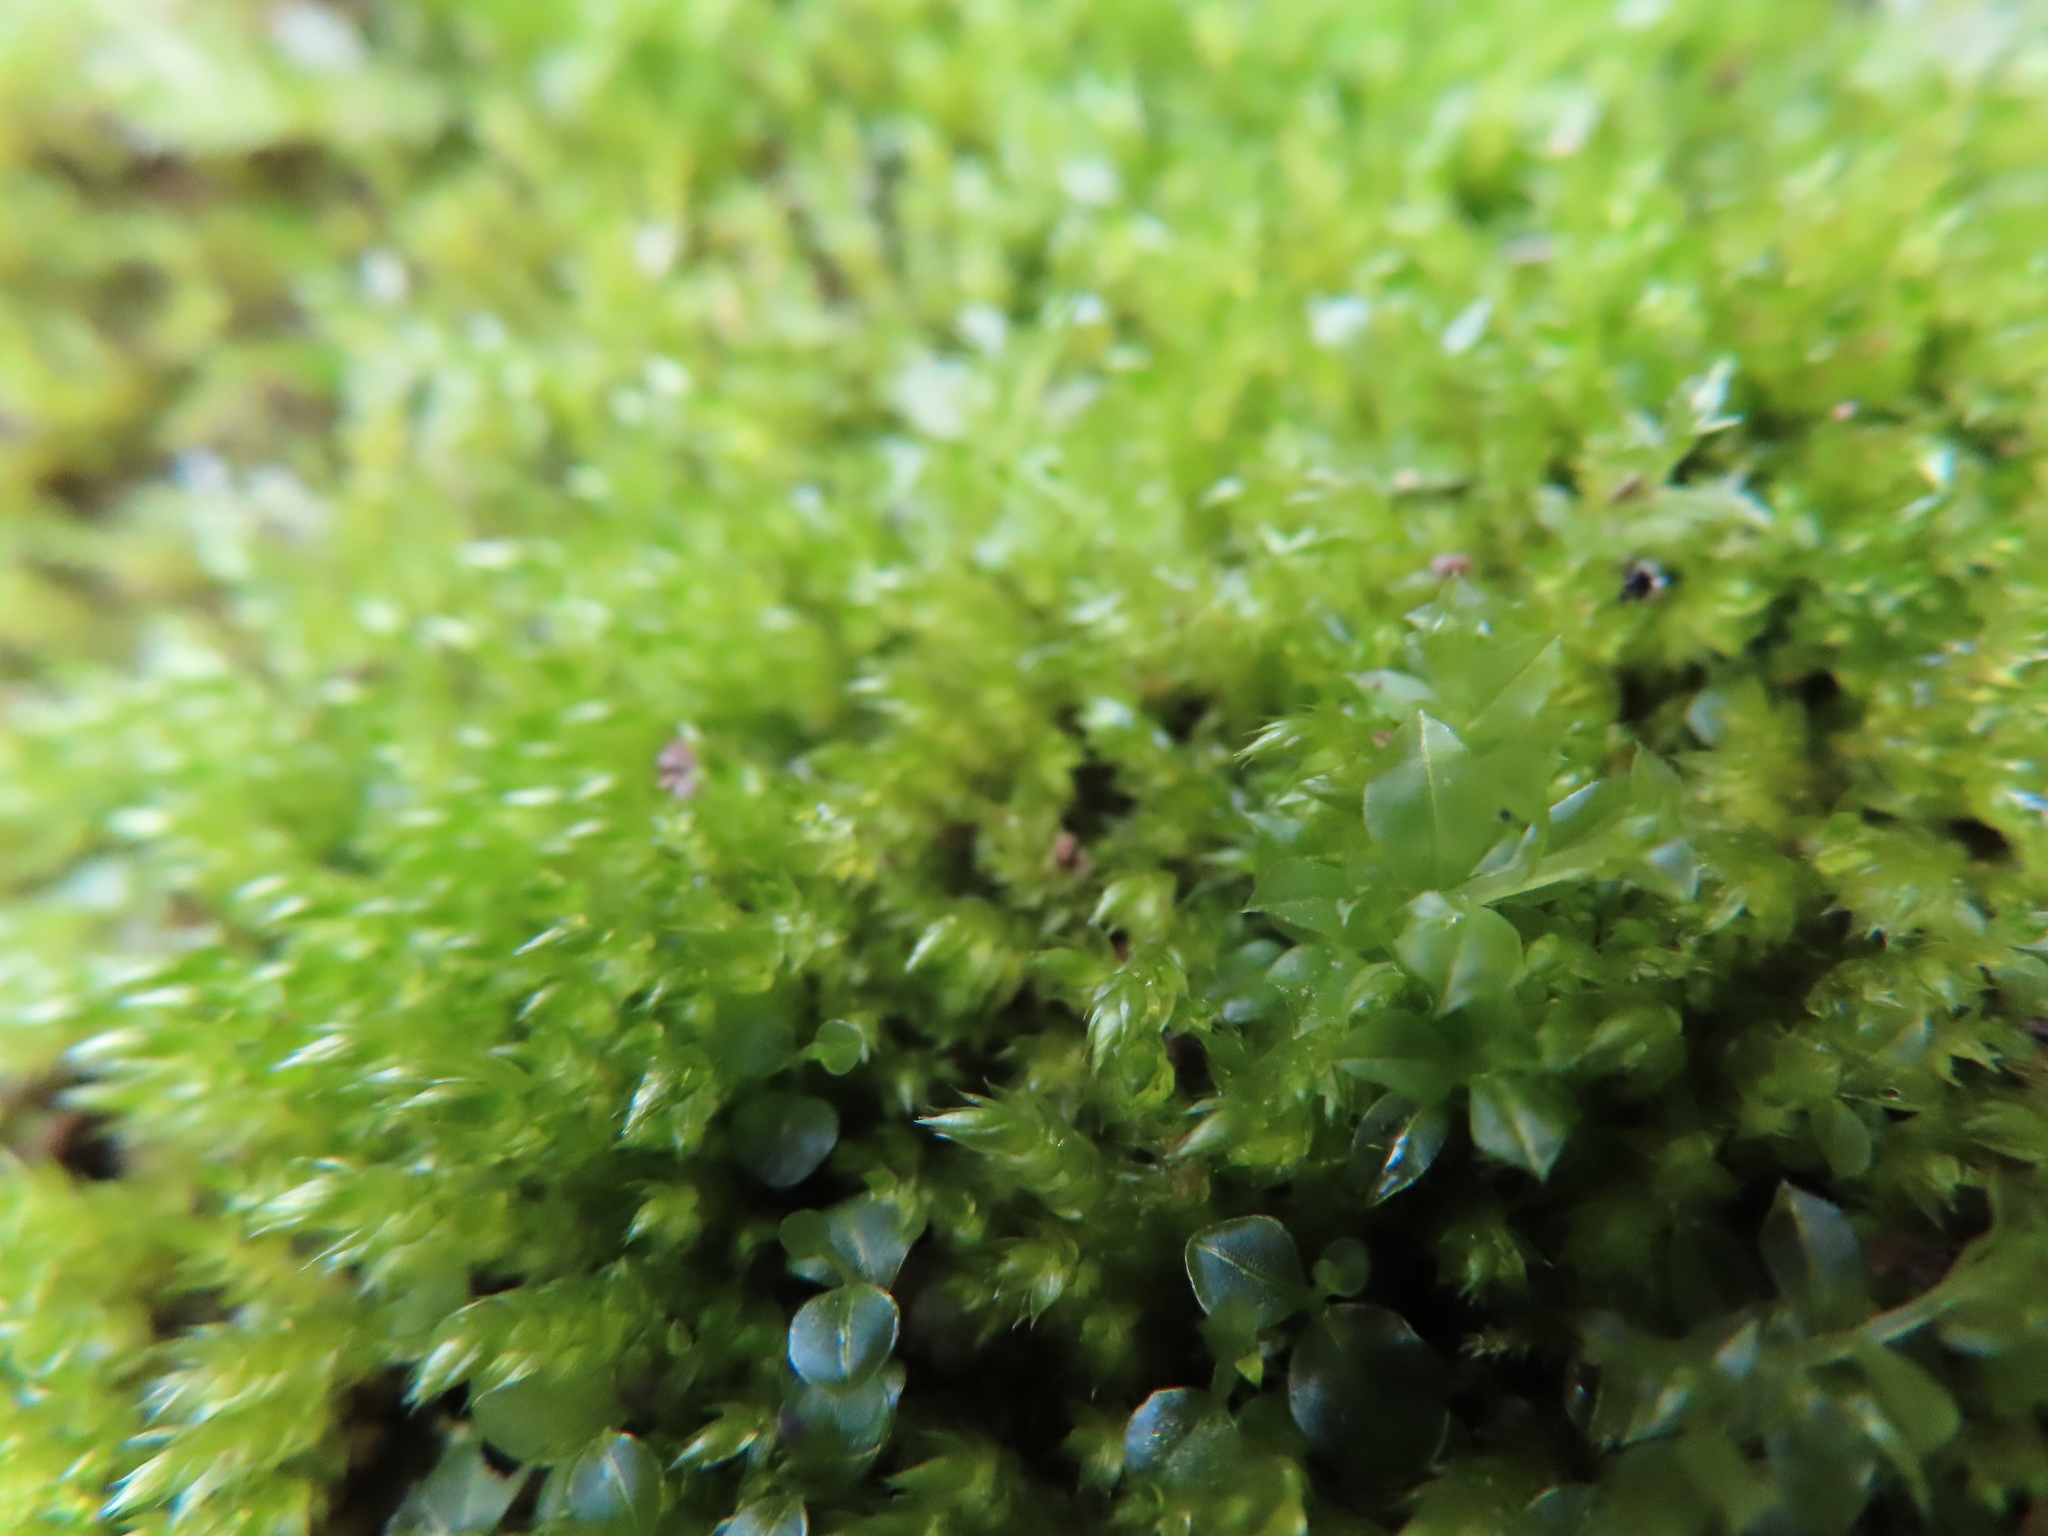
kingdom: Plantae
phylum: Bryophyta
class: Bryopsida
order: Bryales
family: Mniaceae
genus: Plagiomnium
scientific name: Plagiomnium cuspidatum
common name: Woodsy leafy moss
